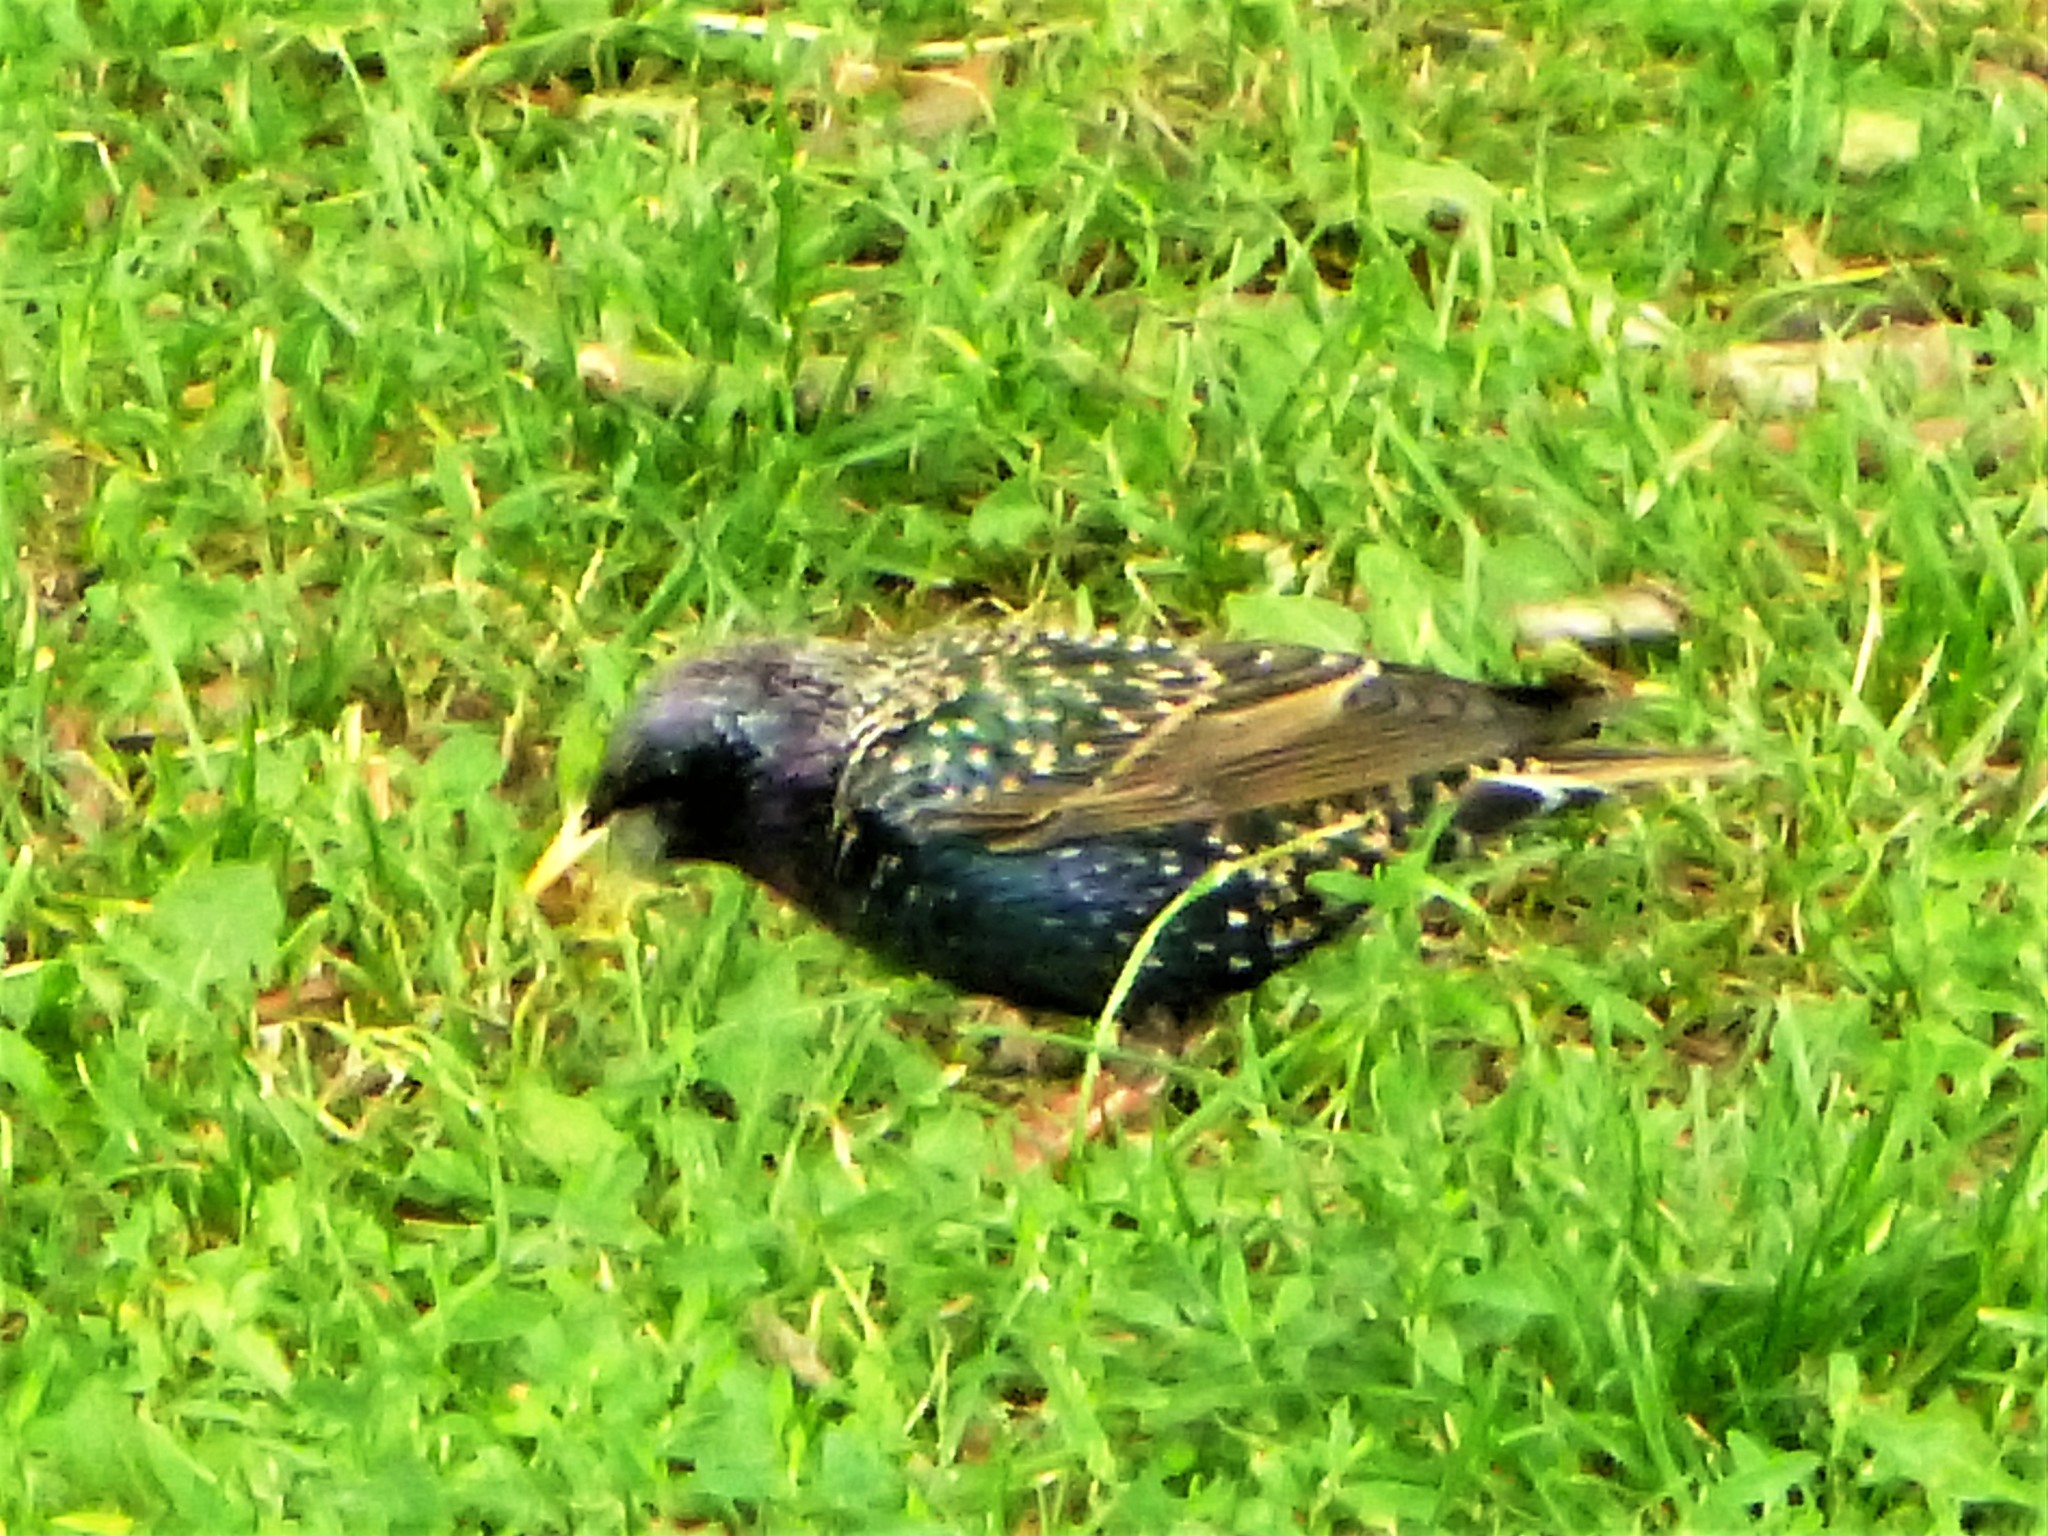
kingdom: Animalia
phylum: Chordata
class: Aves
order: Passeriformes
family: Sturnidae
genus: Sturnus
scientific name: Sturnus vulgaris
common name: Common starling
